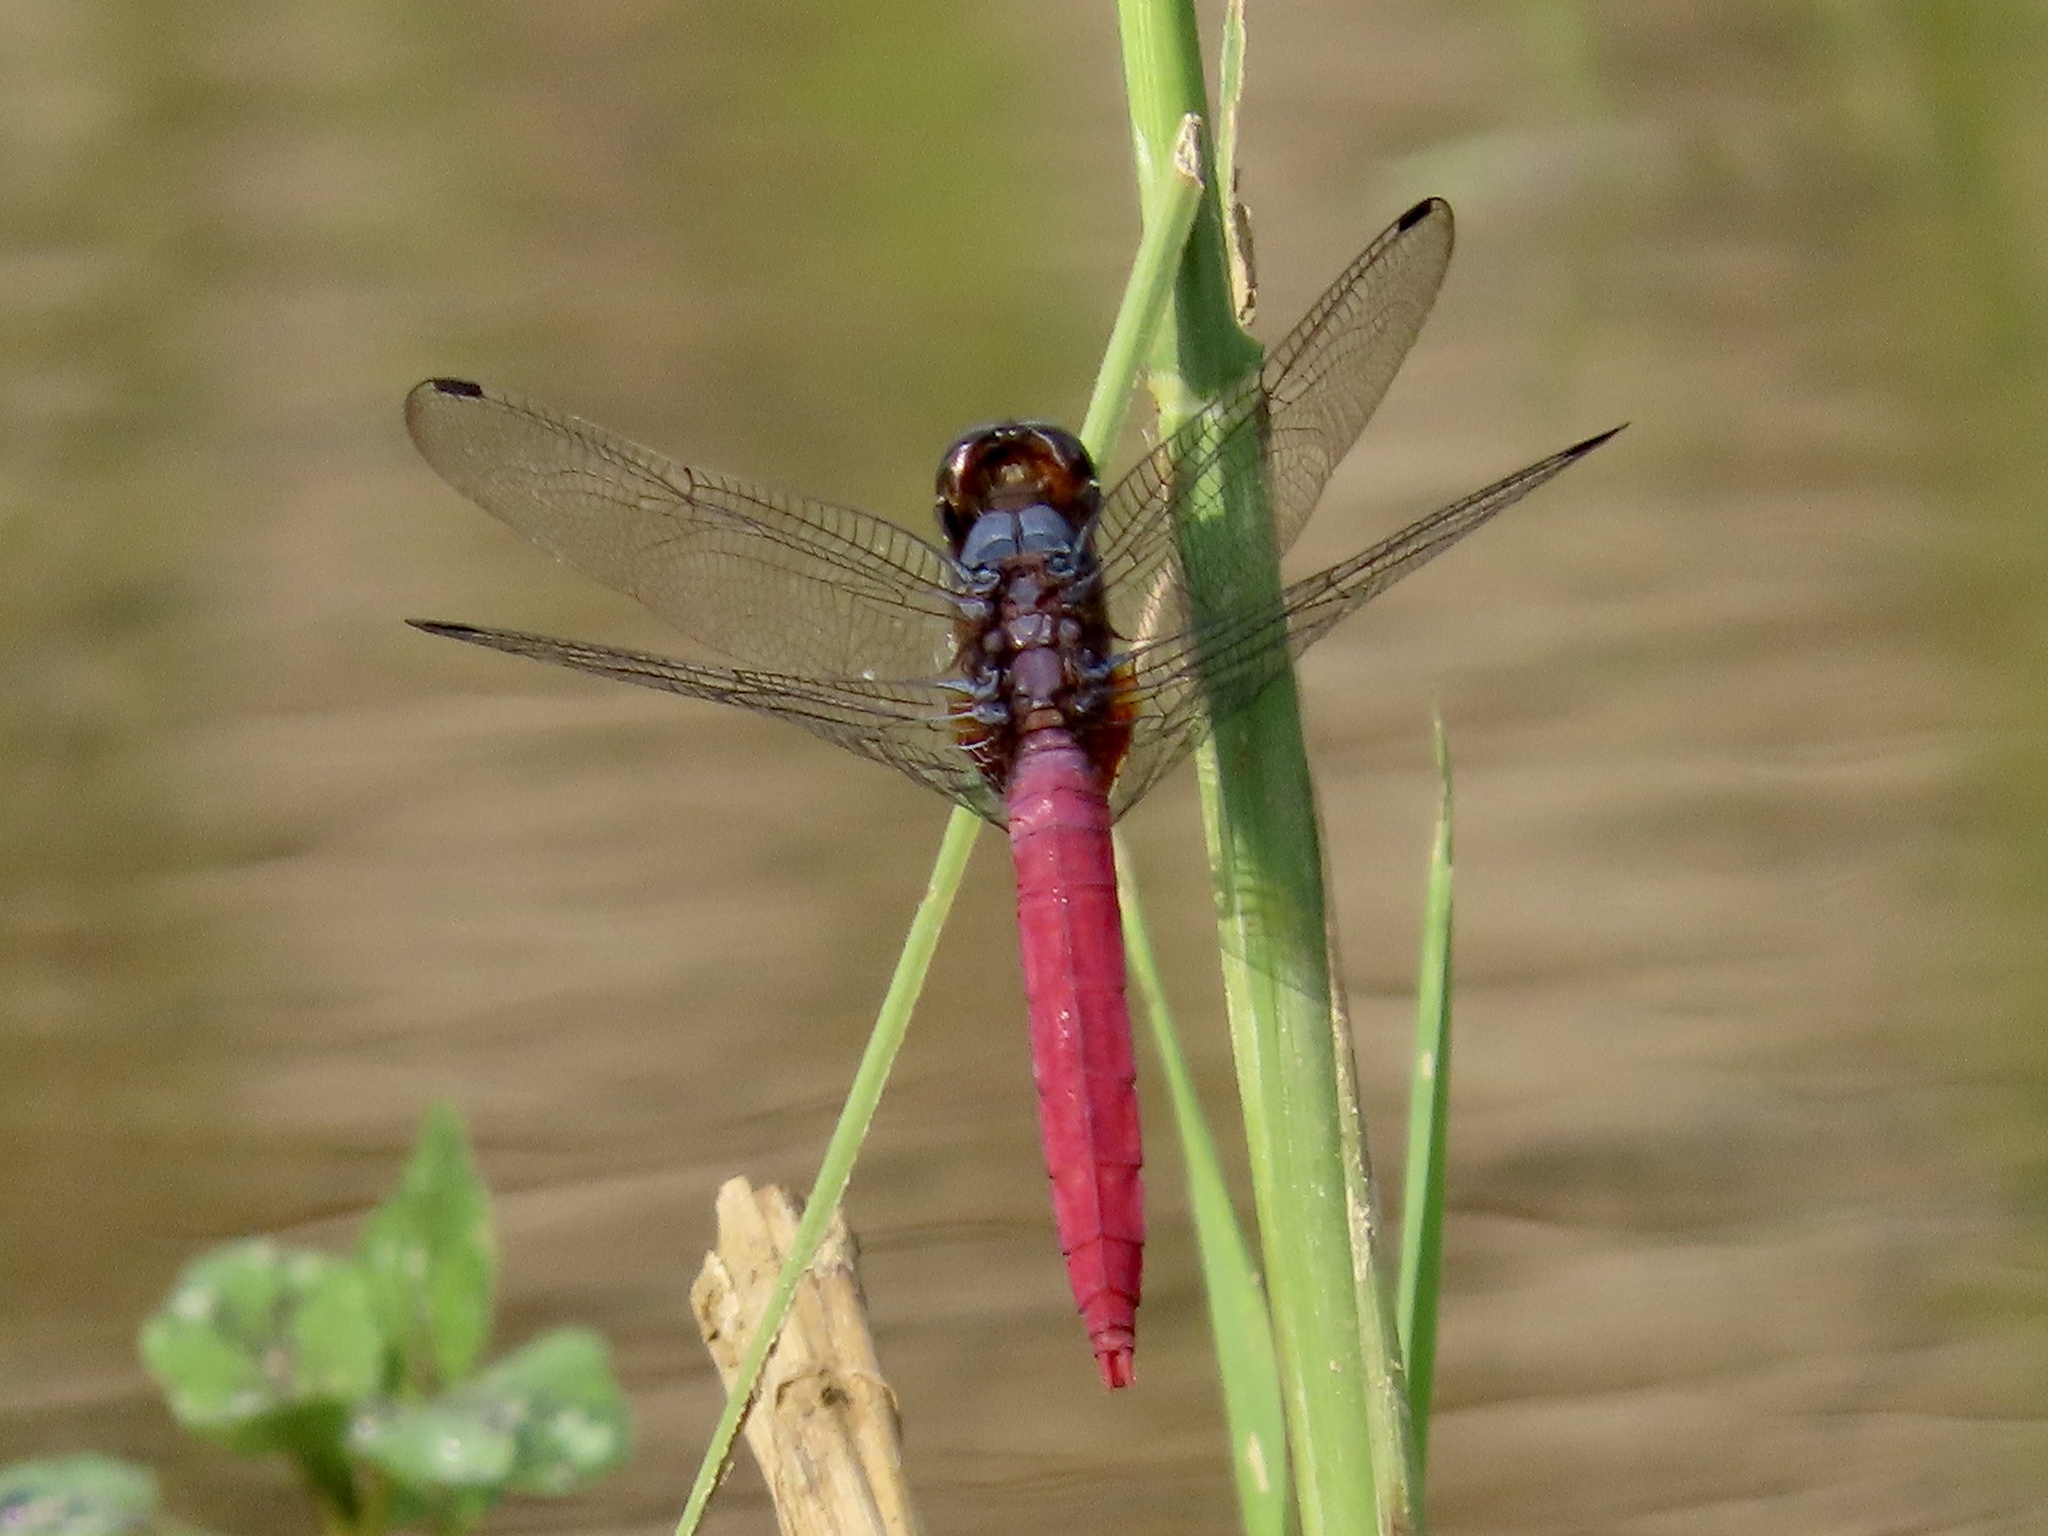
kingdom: Animalia
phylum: Arthropoda
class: Insecta
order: Odonata
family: Libellulidae
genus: Orthetrum
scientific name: Orthetrum pruinosum
